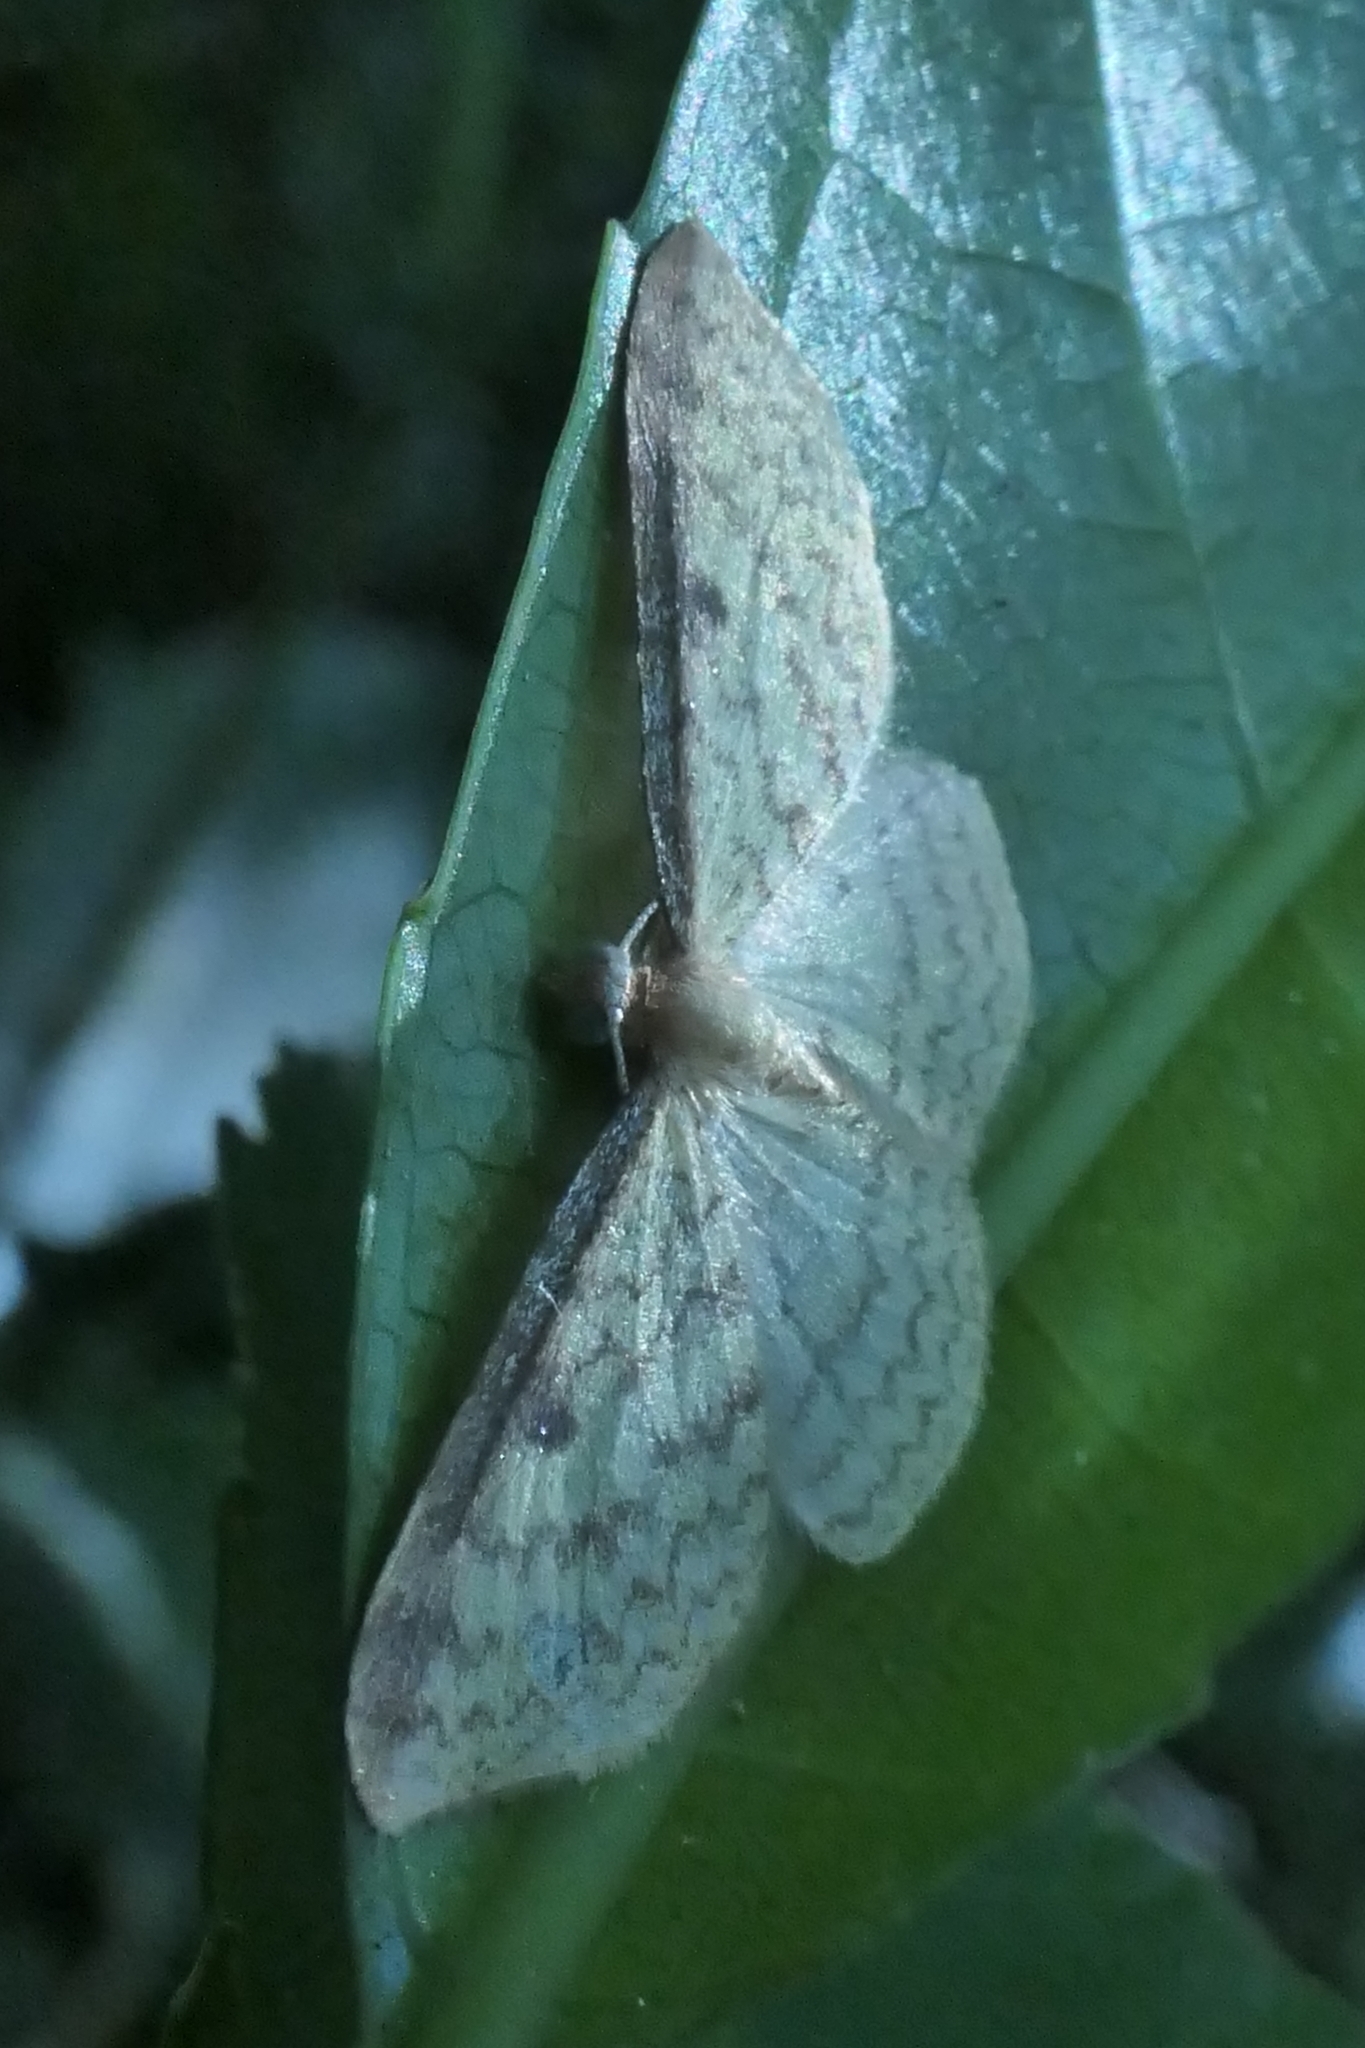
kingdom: Animalia
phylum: Arthropoda
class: Insecta
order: Lepidoptera
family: Geometridae
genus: Epiphryne
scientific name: Epiphryne undosata
